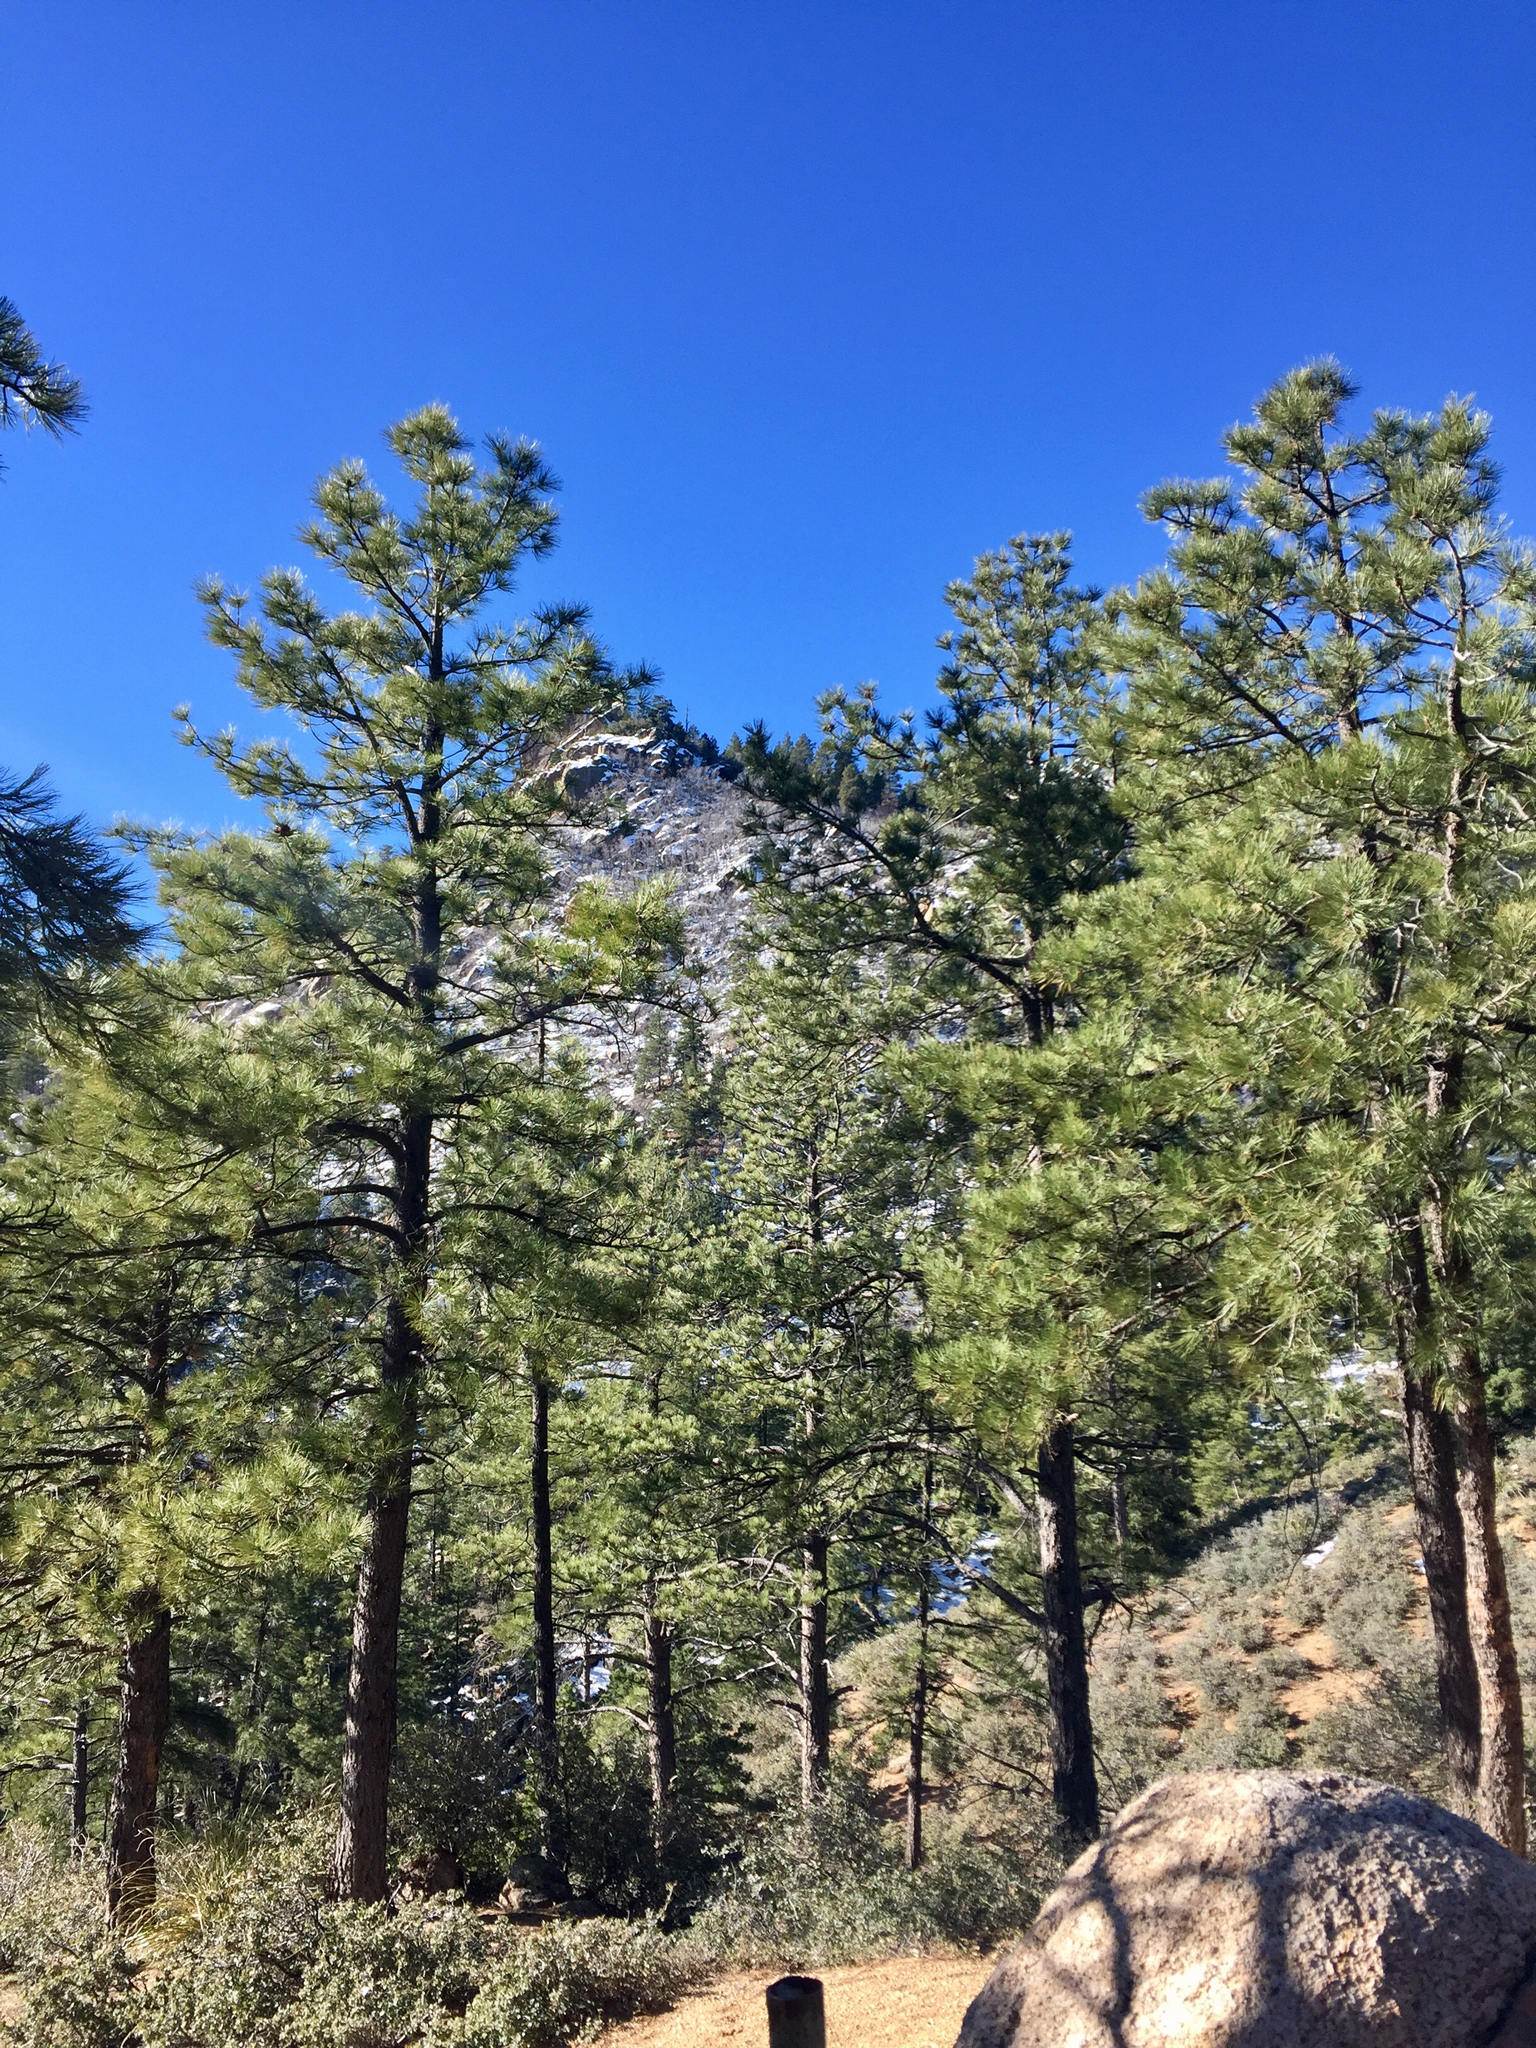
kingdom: Plantae
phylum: Tracheophyta
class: Pinopsida
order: Pinales
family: Pinaceae
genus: Pinus
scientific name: Pinus ponderosa
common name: Western yellow-pine
